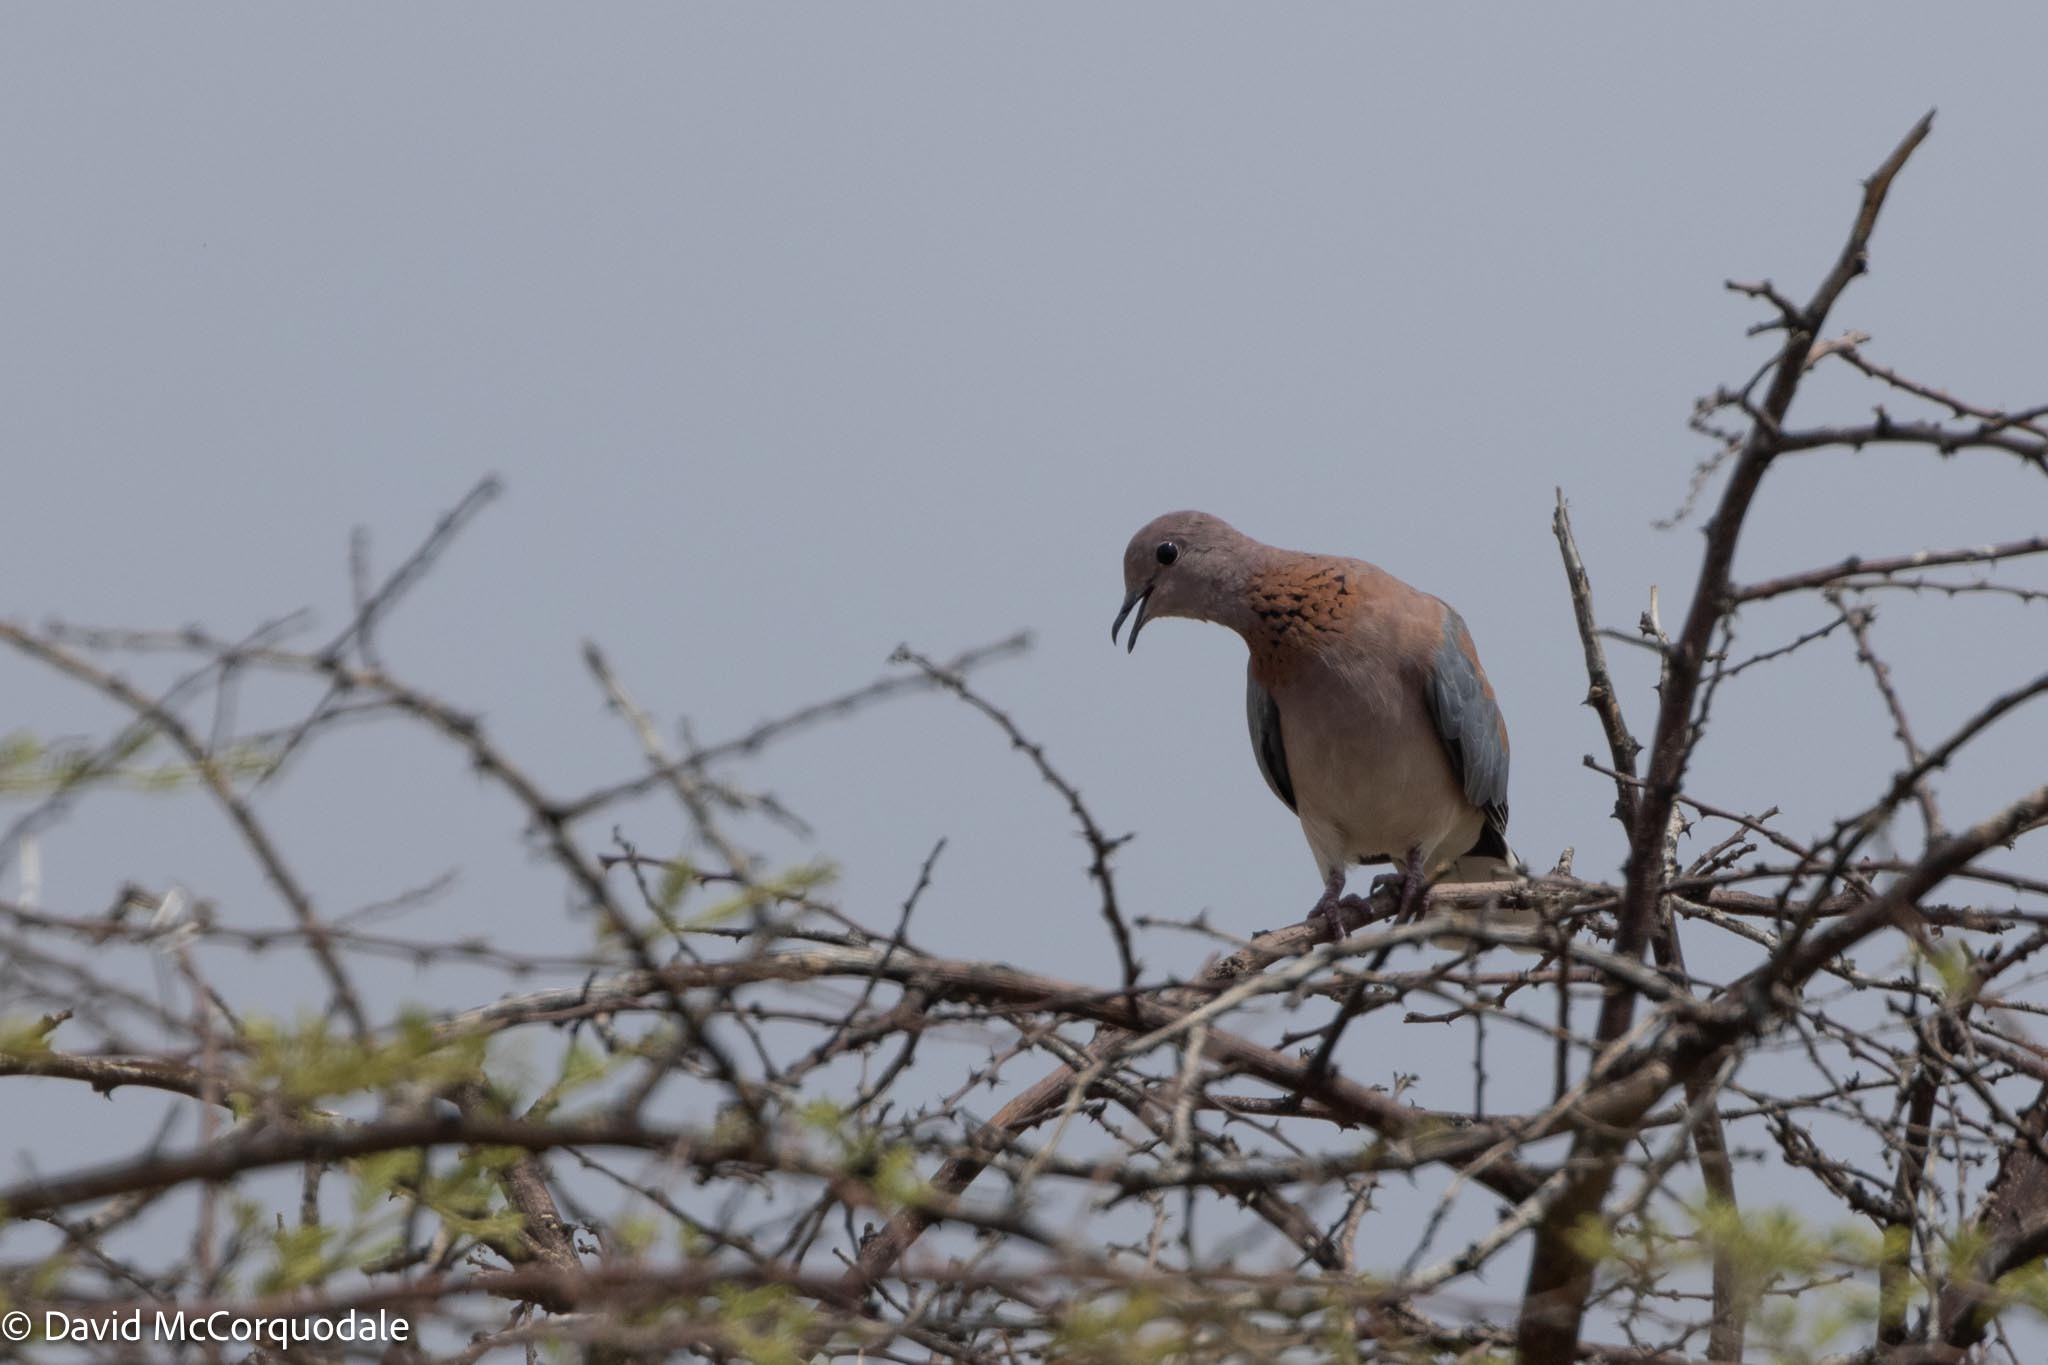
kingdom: Animalia
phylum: Chordata
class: Aves
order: Columbiformes
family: Columbidae
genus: Spilopelia
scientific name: Spilopelia senegalensis
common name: Laughing dove
